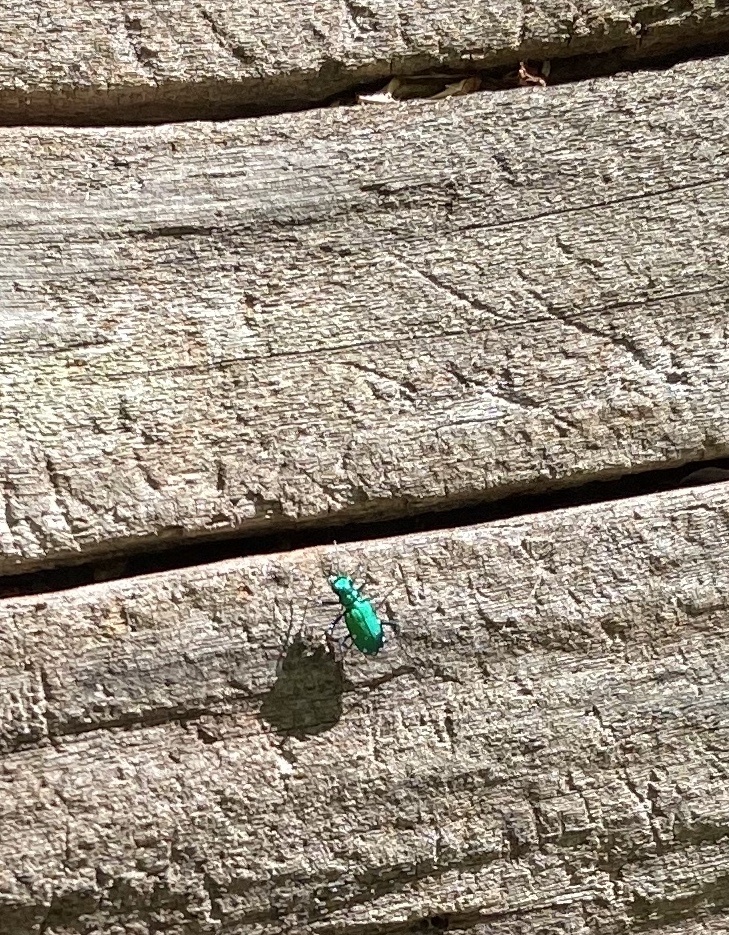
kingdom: Animalia
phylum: Arthropoda
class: Insecta
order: Coleoptera
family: Carabidae
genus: Cicindela
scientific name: Cicindela sexguttata
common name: Six-spotted tiger beetle
